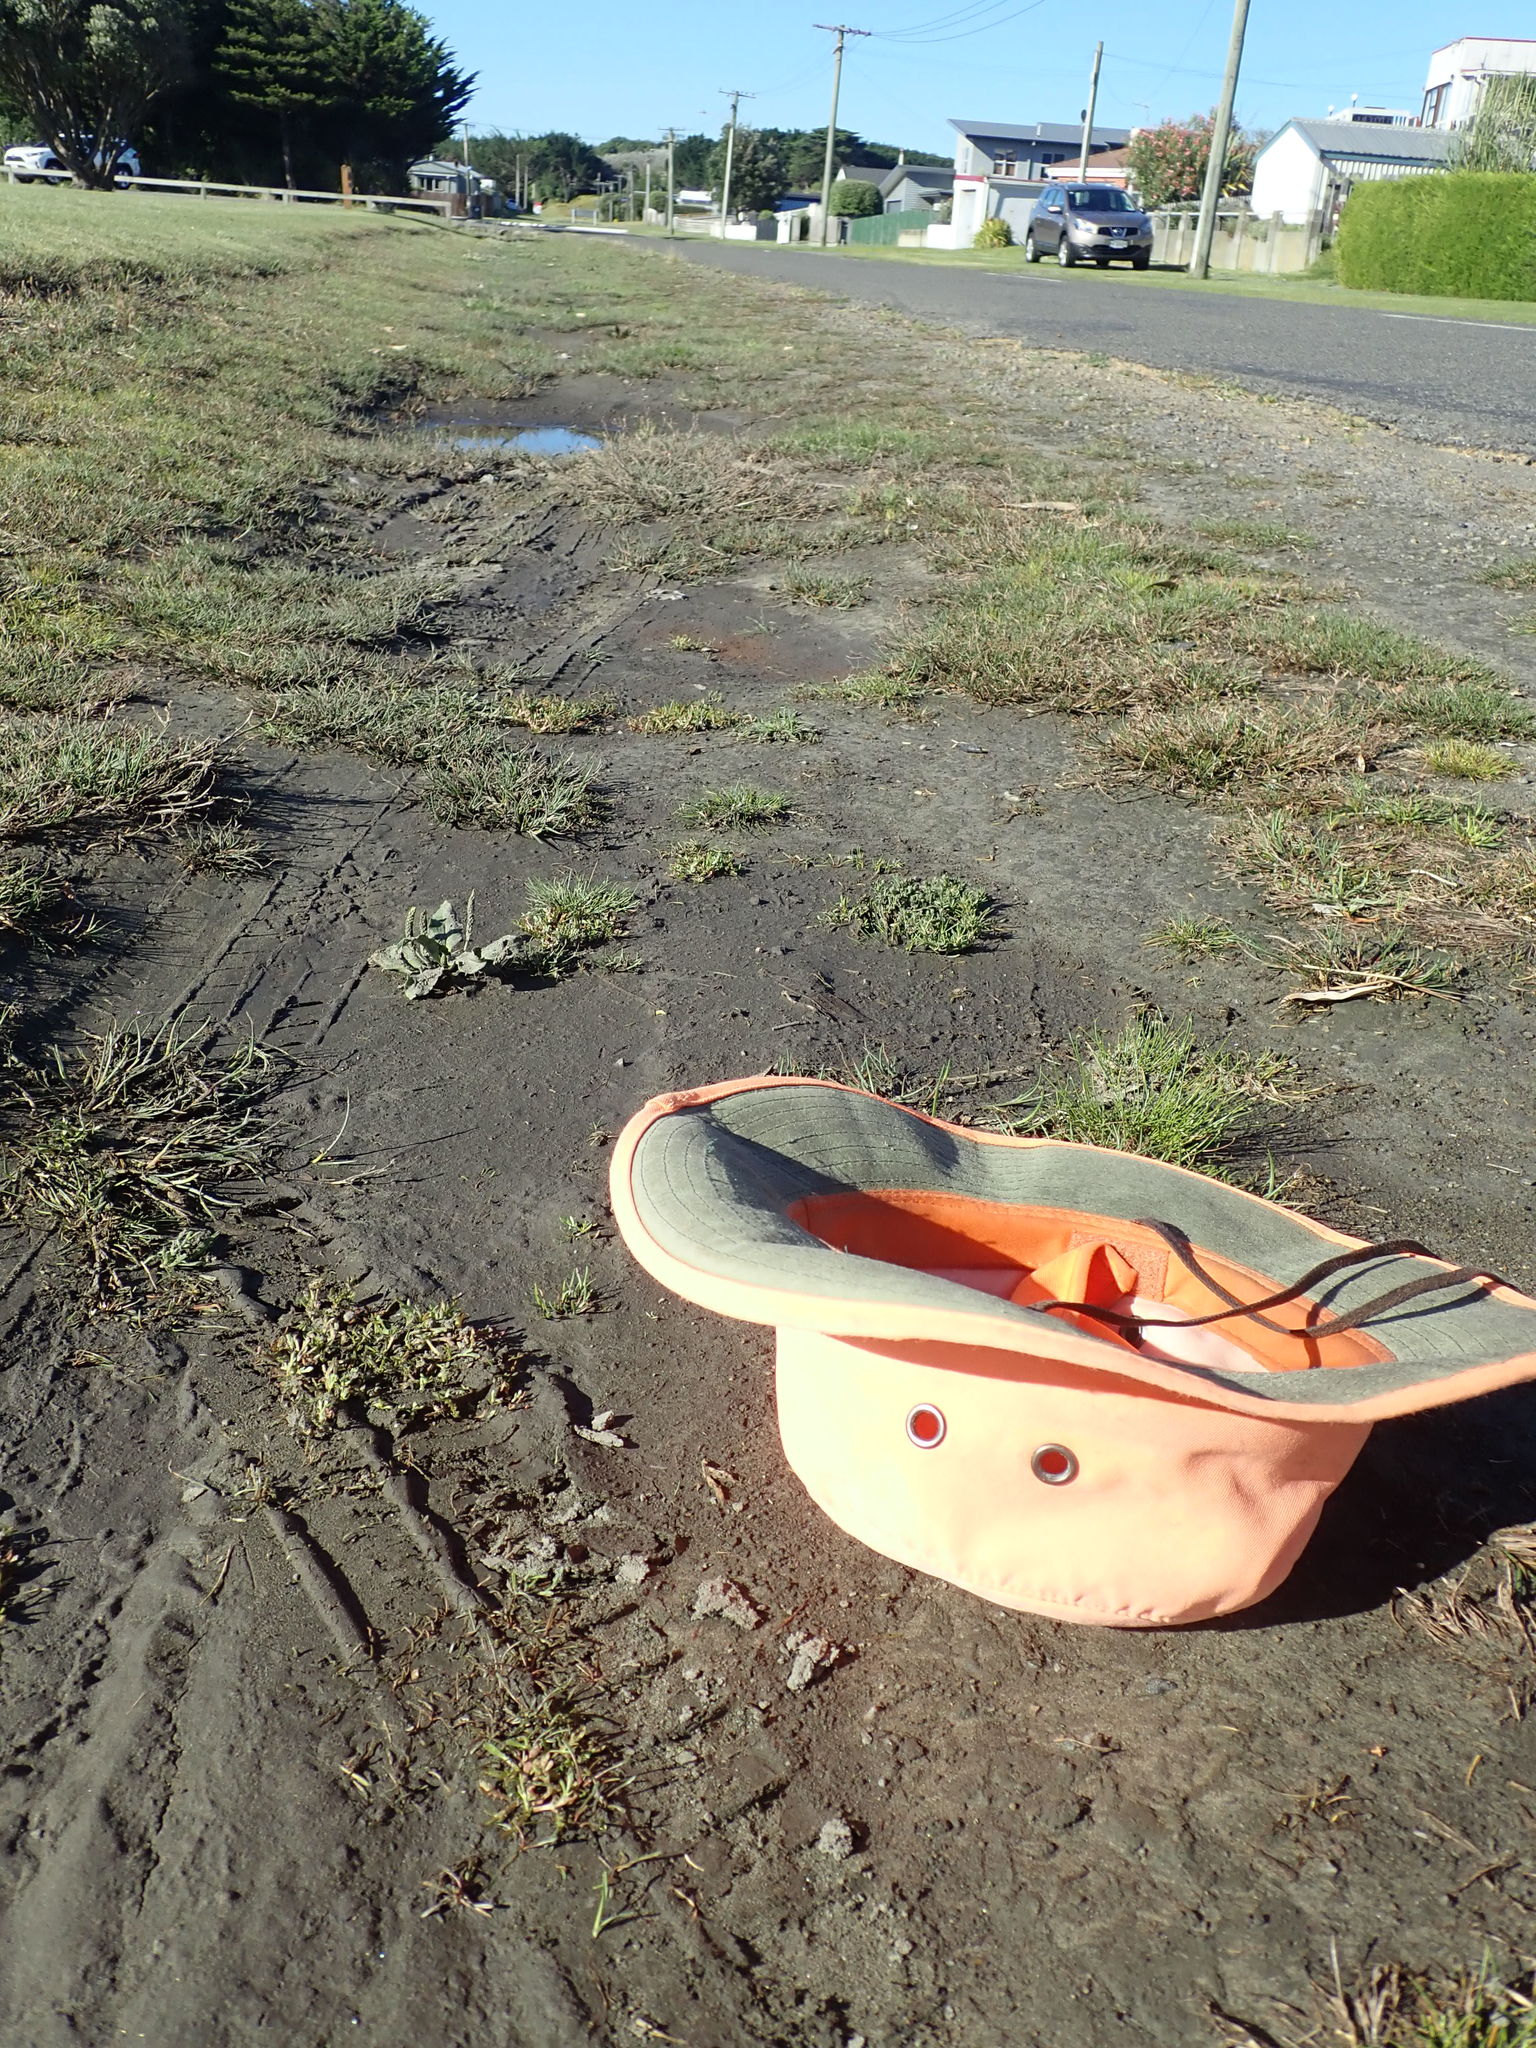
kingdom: Plantae
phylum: Tracheophyta
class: Magnoliopsida
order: Lamiales
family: Scrophulariaceae
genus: Limosella
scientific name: Limosella australis
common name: Welsh mudwort
